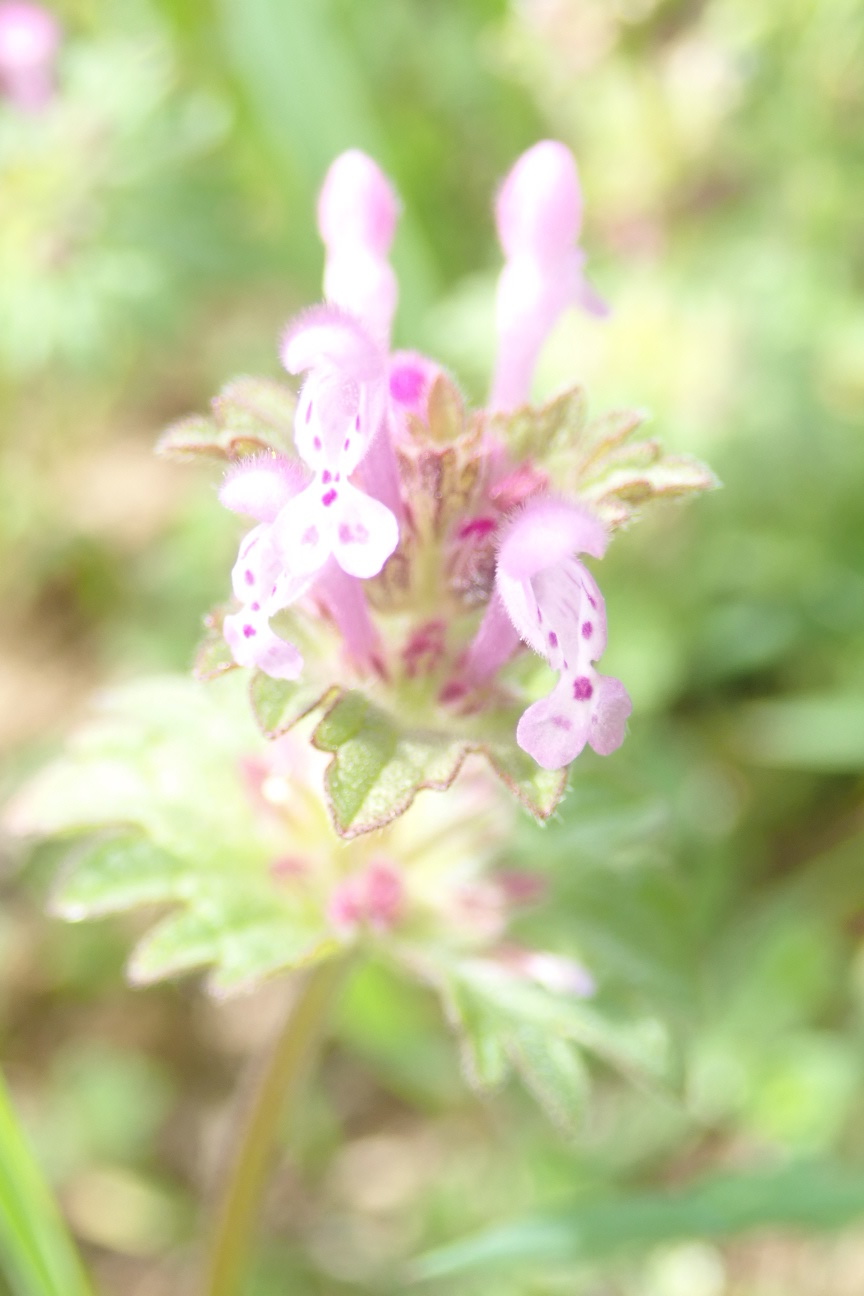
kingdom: Plantae
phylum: Tracheophyta
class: Magnoliopsida
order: Lamiales
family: Lamiaceae
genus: Lamium
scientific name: Lamium amplexicaule
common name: Henbit dead-nettle
